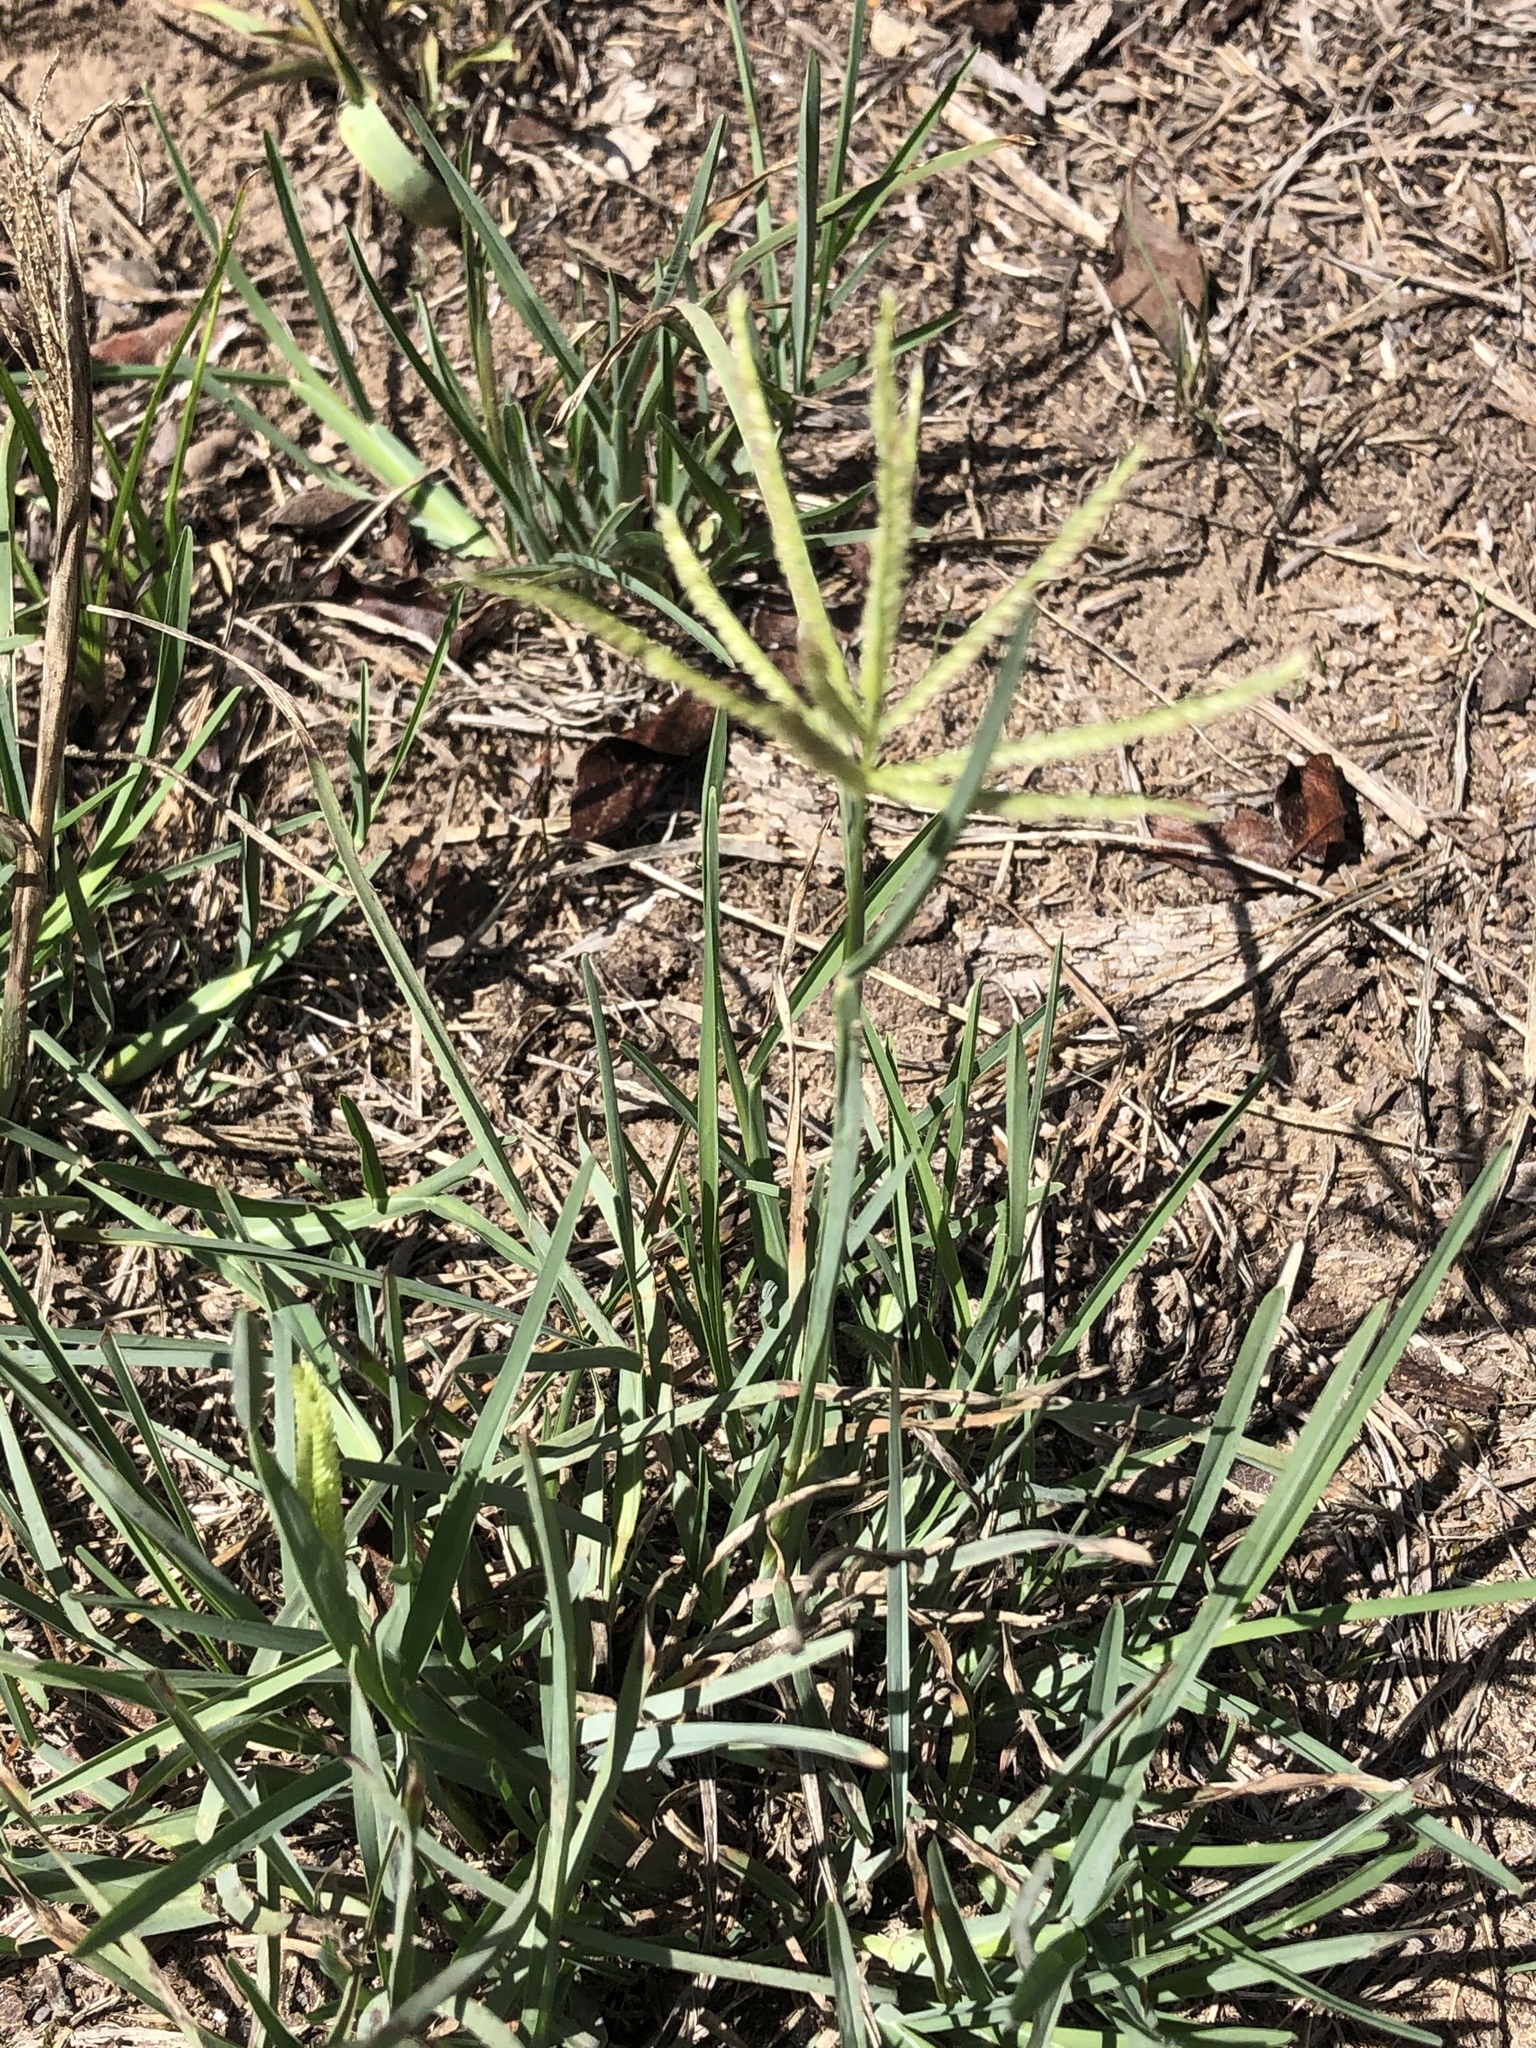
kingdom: Plantae
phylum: Tracheophyta
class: Liliopsida
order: Poales
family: Poaceae
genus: Chloris
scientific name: Chloris cucullata
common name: Hooded windmill grass
